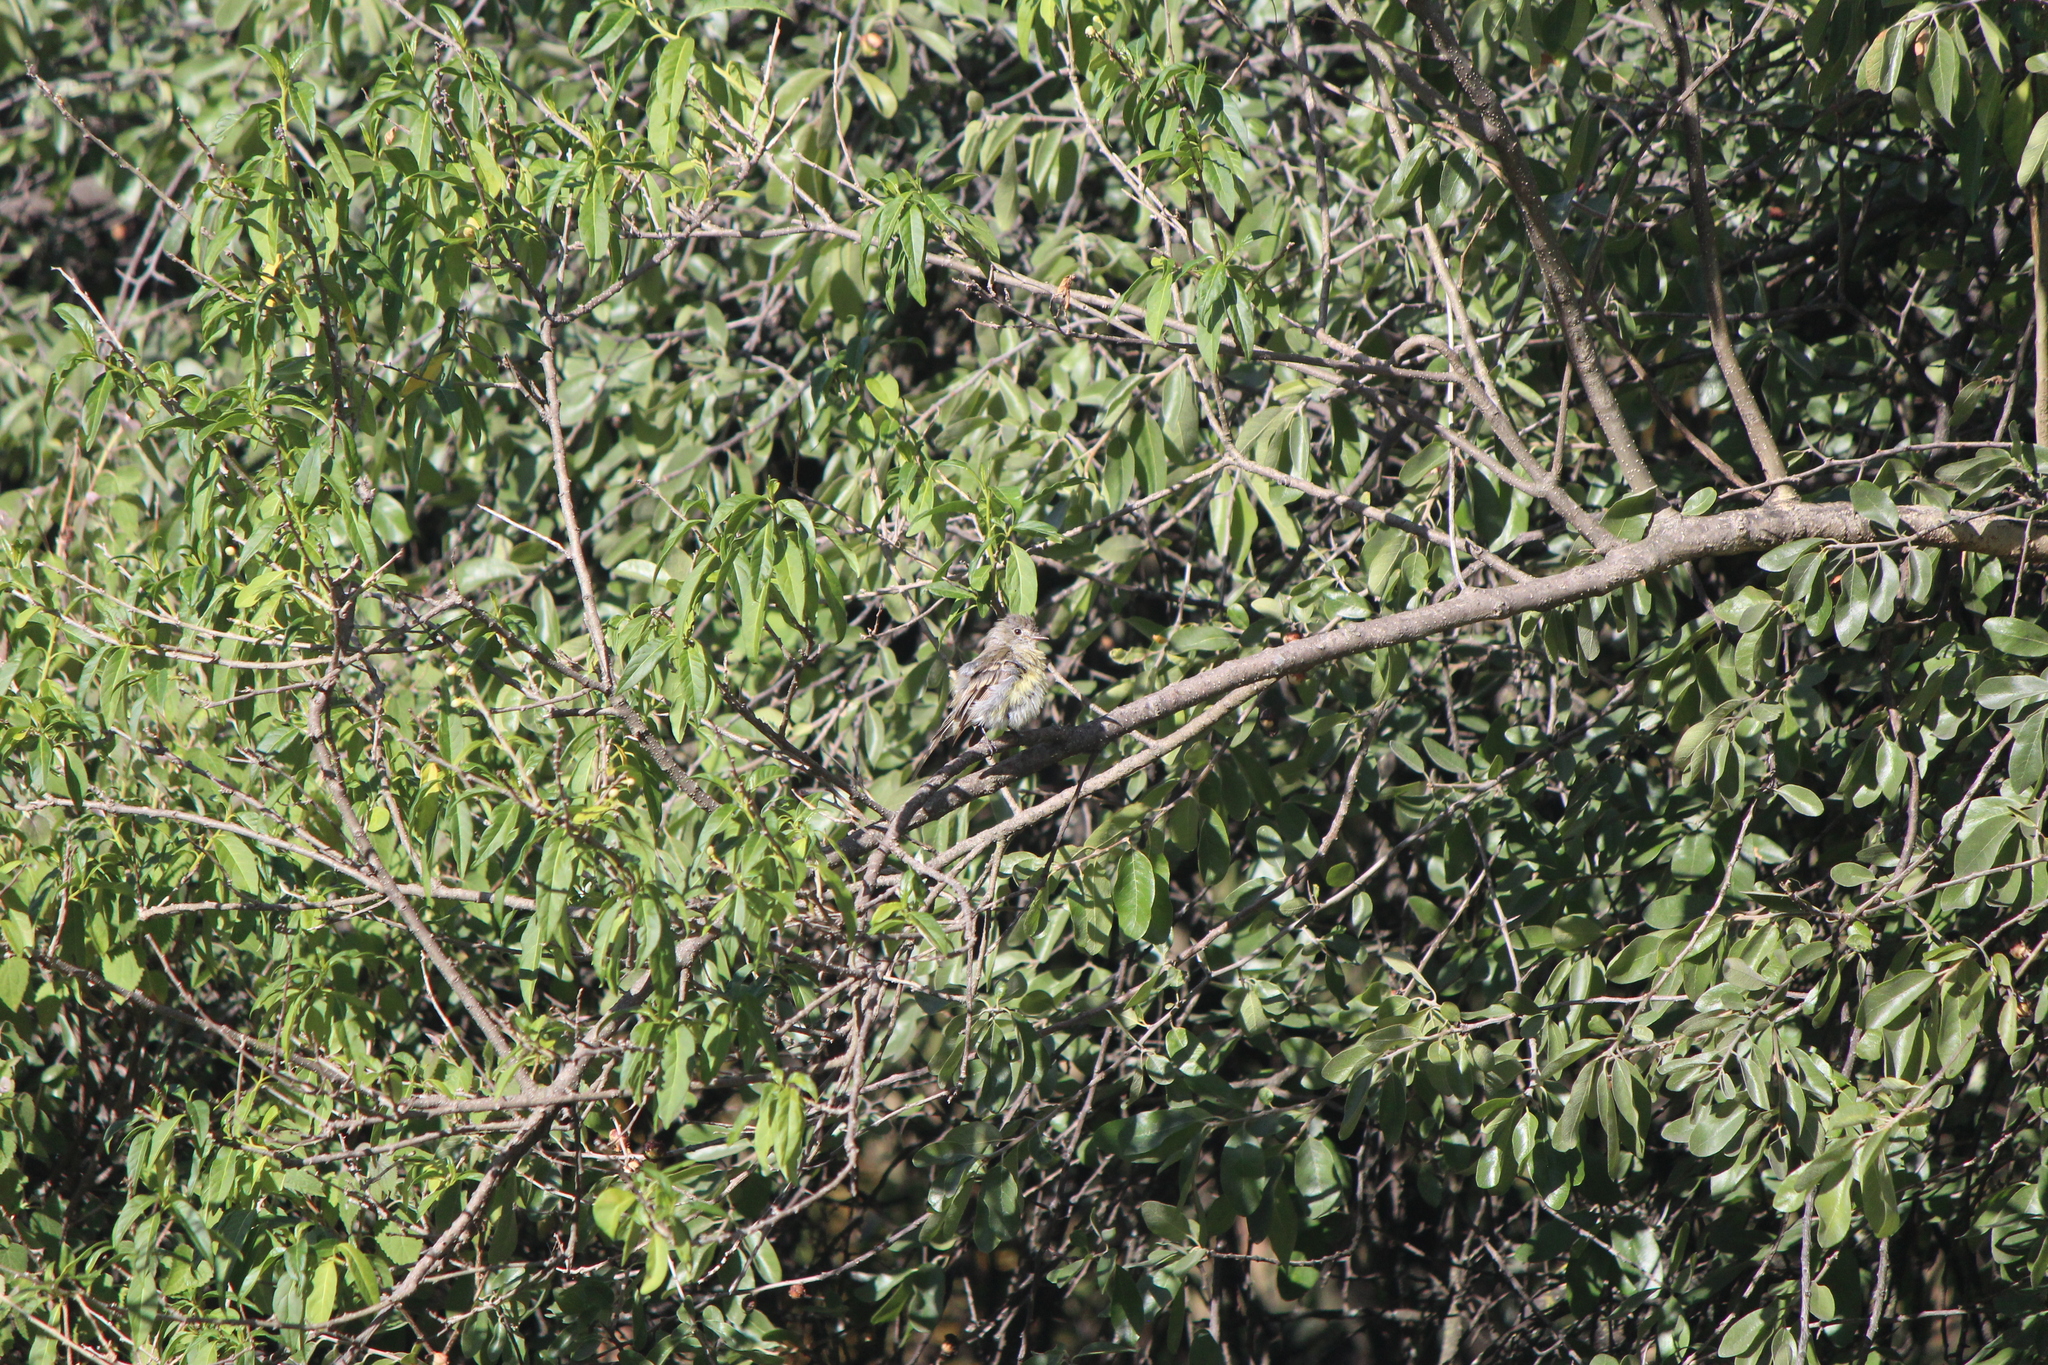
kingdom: Animalia
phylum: Chordata
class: Aves
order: Passeriformes
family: Tyrannidae
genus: Camptostoma
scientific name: Camptostoma imberbe
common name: Northern beardless-tyrannulet
